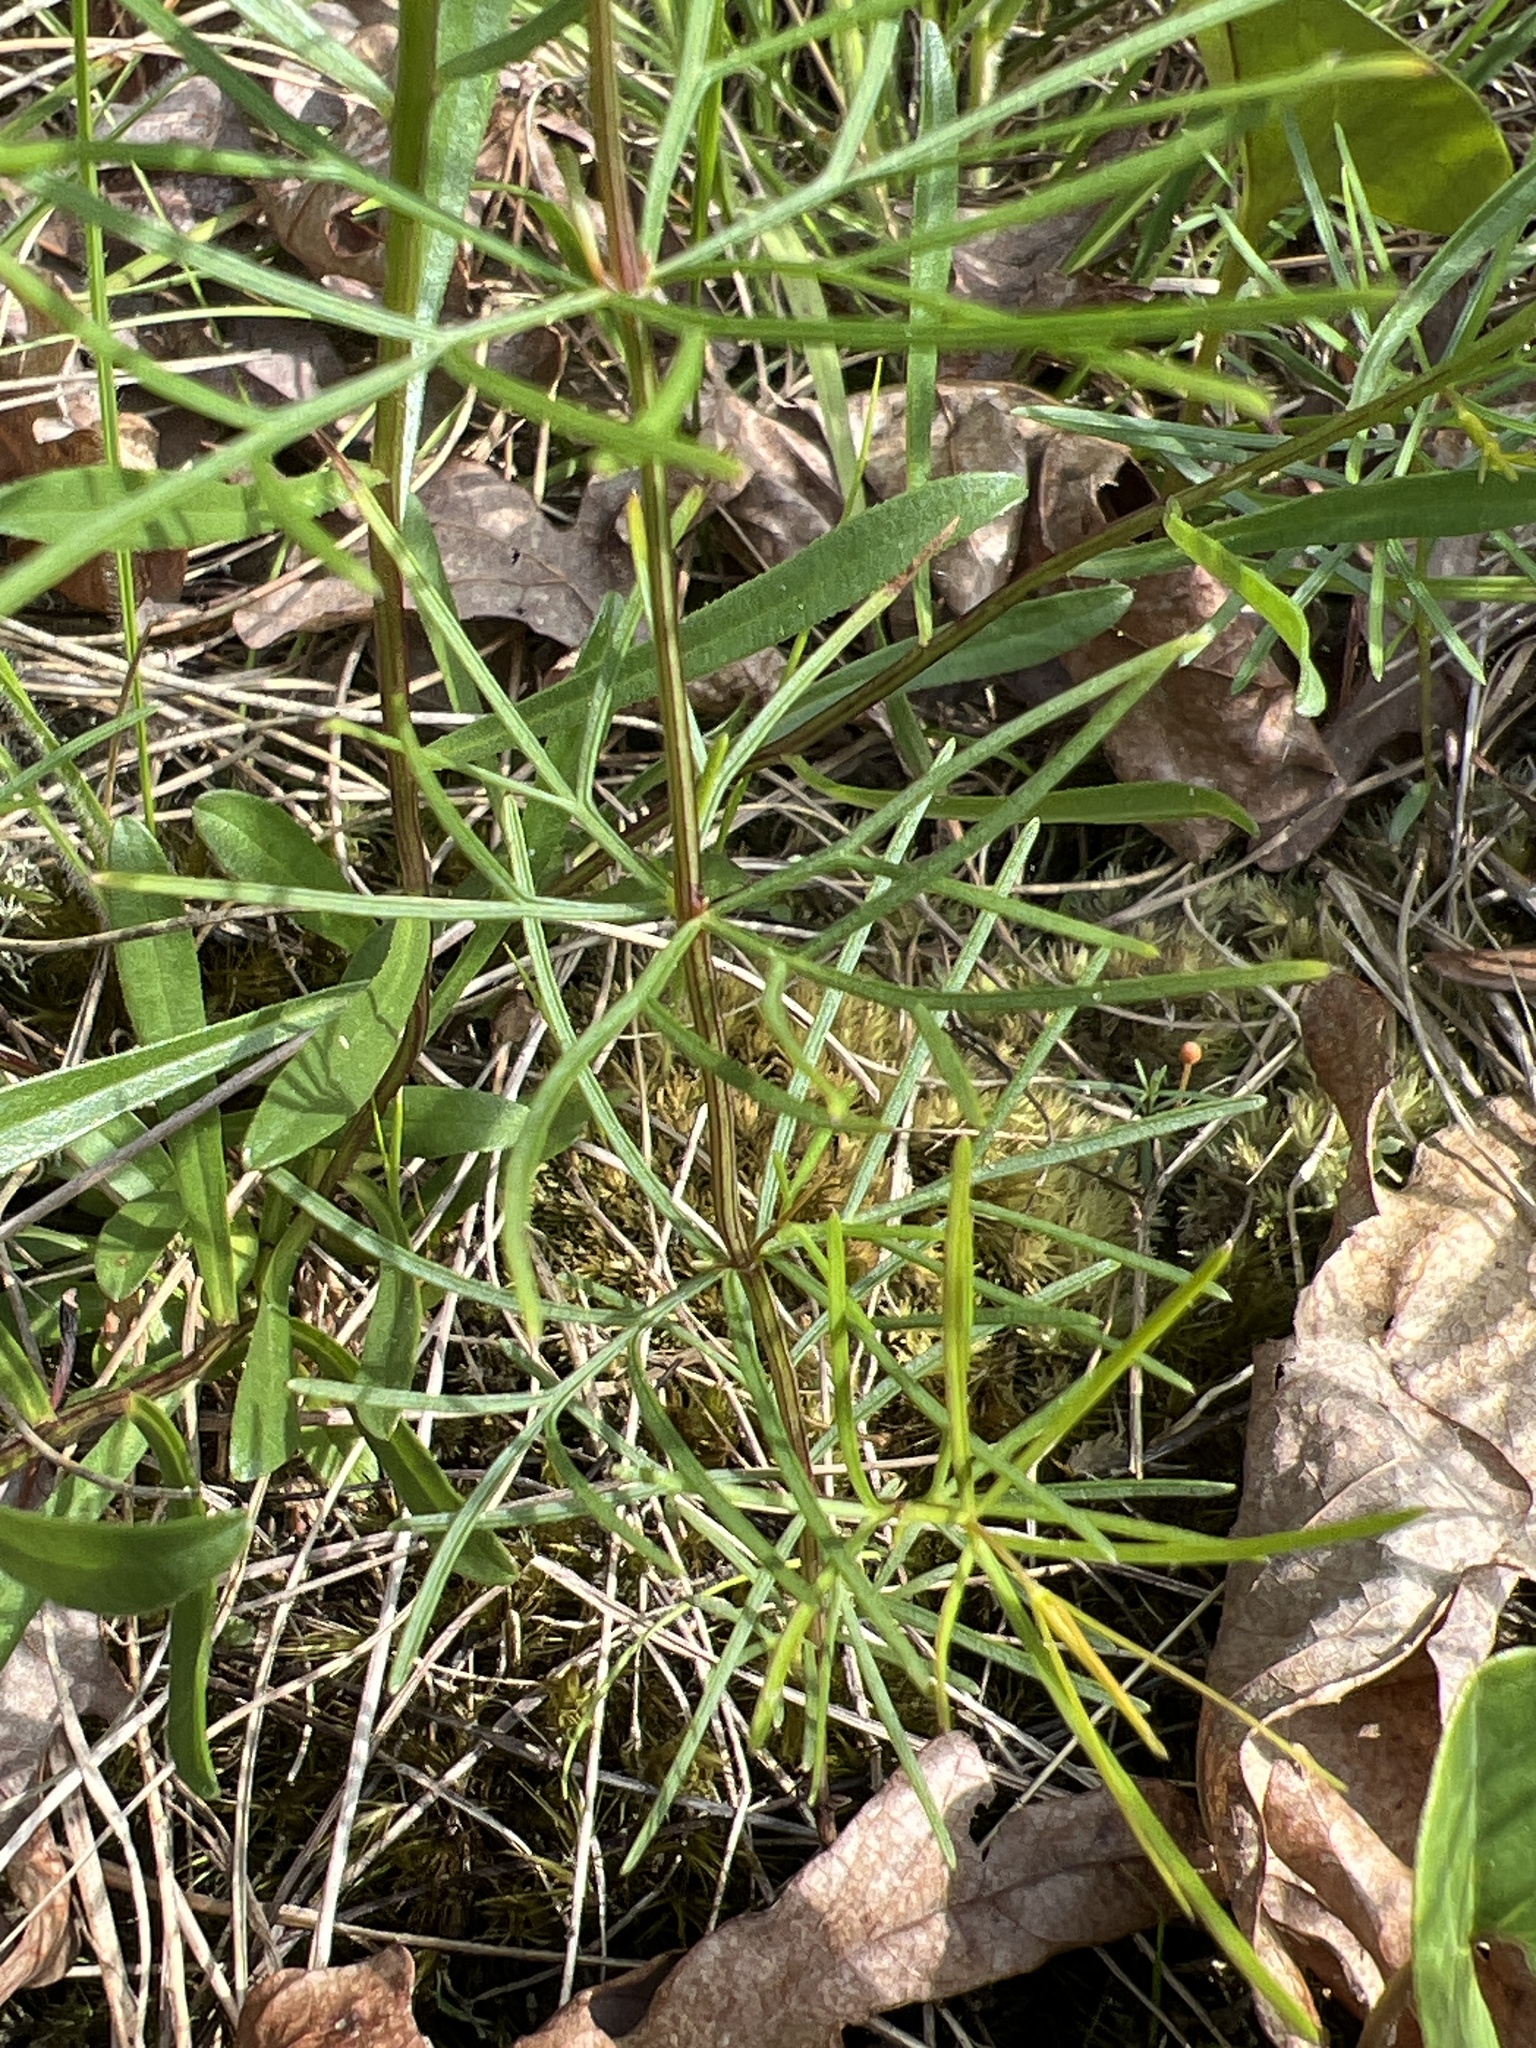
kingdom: Plantae
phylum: Tracheophyta
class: Magnoliopsida
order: Asterales
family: Asteraceae
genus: Coreopsis
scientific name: Coreopsis verticillata
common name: Whorled tickseed
